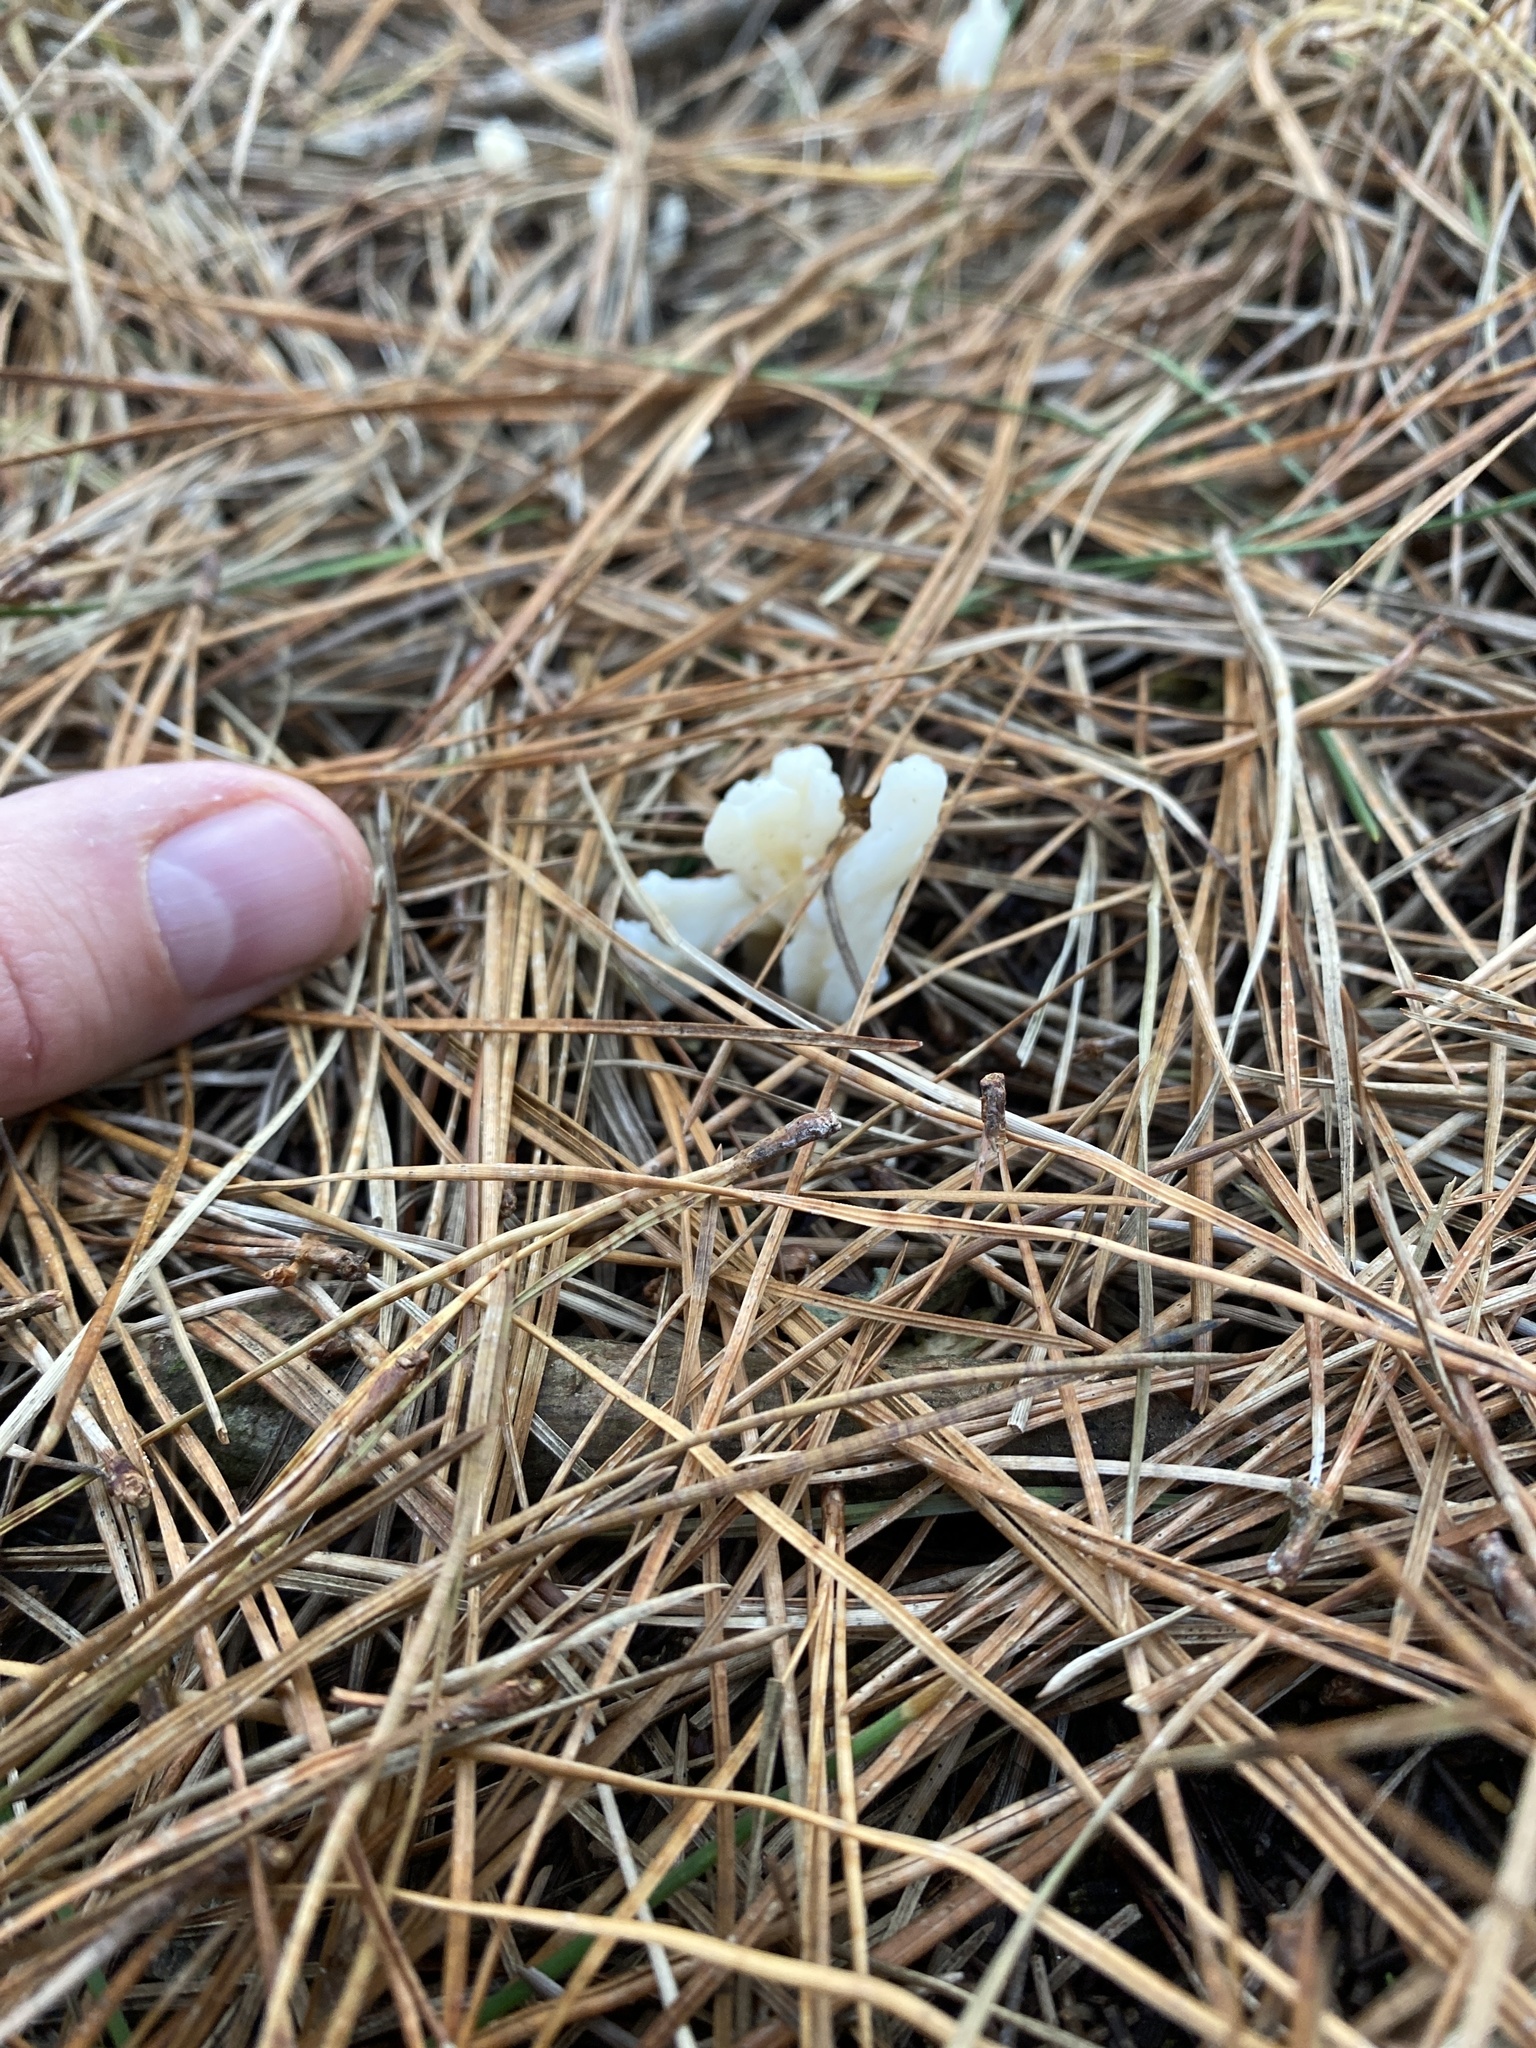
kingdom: Fungi
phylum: Basidiomycota
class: Agaricomycetes
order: Cantharellales
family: Hydnaceae
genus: Clavulina
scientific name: Clavulina rugosa
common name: Wrinkled club
